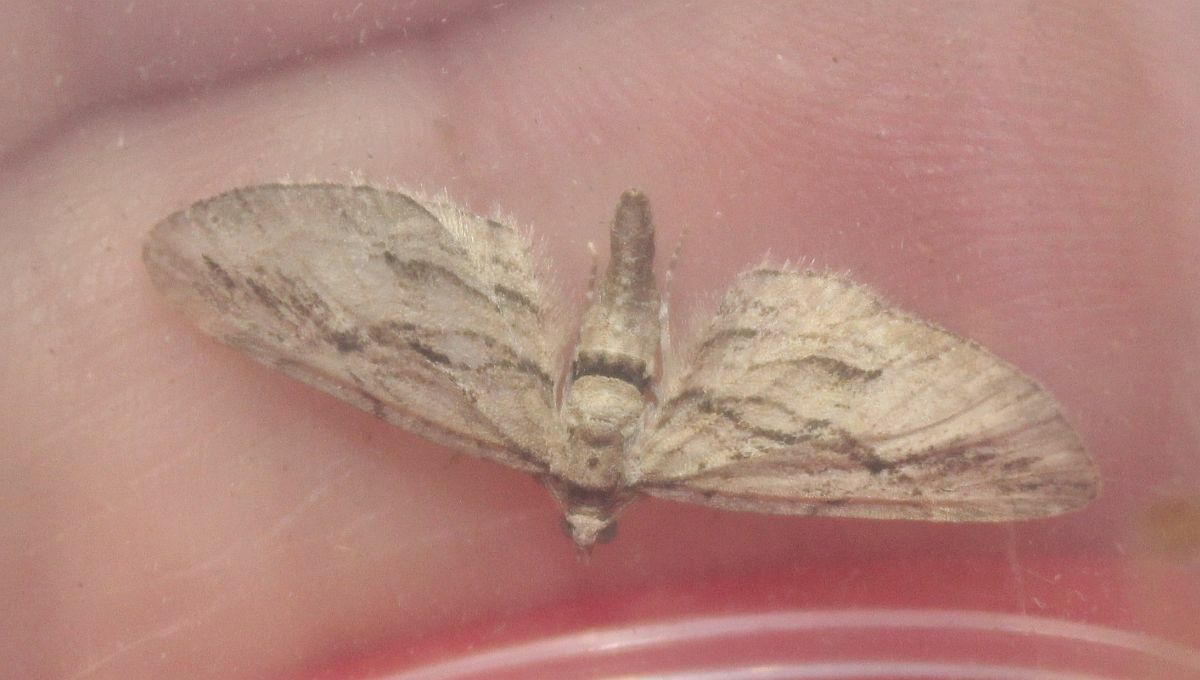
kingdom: Animalia
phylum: Arthropoda
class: Insecta
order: Lepidoptera
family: Geometridae
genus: Eupithecia
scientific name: Eupithecia phoeniceata
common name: Cypress pug
